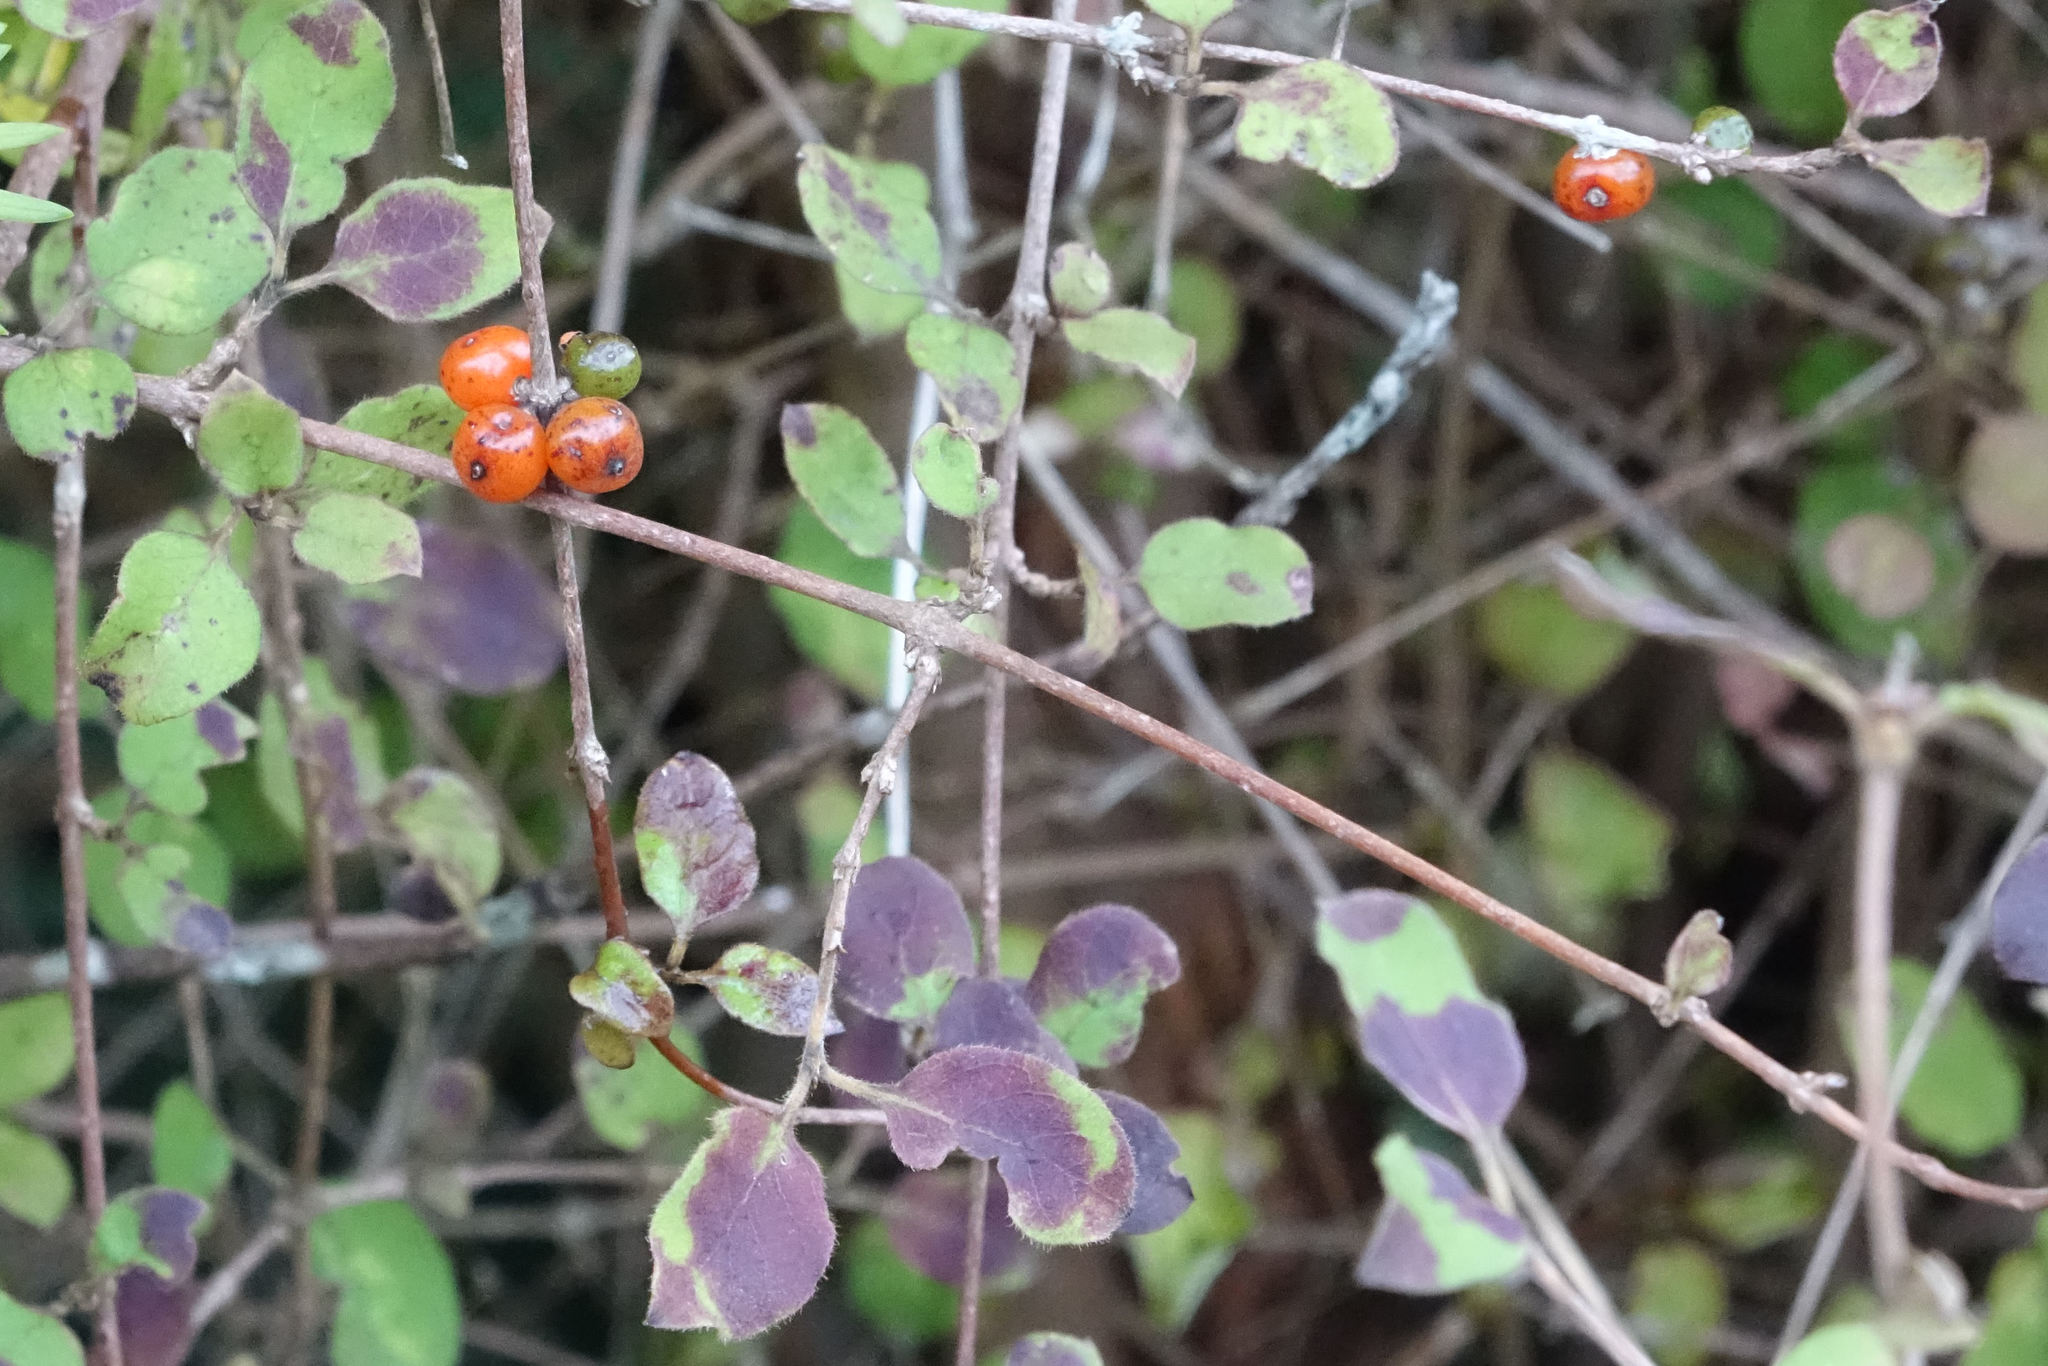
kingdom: Plantae
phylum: Tracheophyta
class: Magnoliopsida
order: Gentianales
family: Rubiaceae
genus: Coprosma
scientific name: Coprosma rotundifolia
